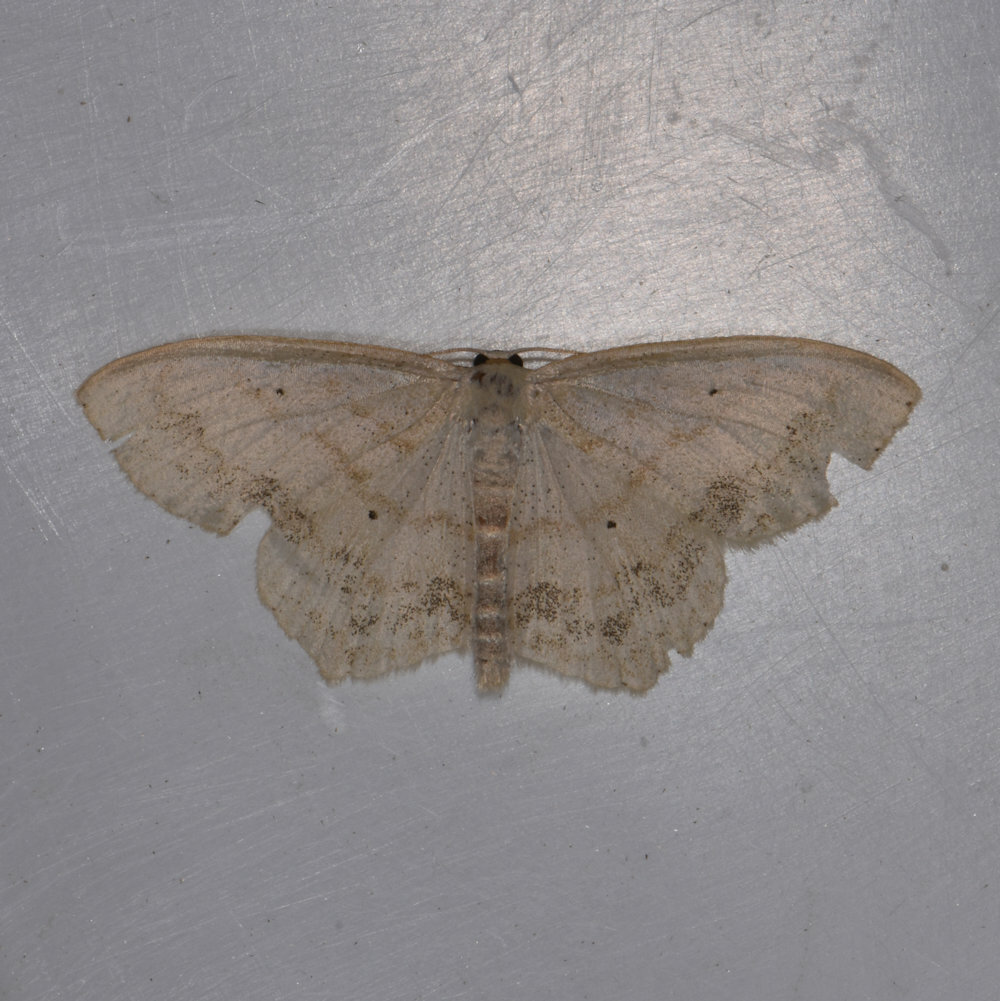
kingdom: Animalia
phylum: Arthropoda
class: Insecta
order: Lepidoptera
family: Geometridae
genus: Scopula
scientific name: Scopula limboundata
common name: Large lace border
